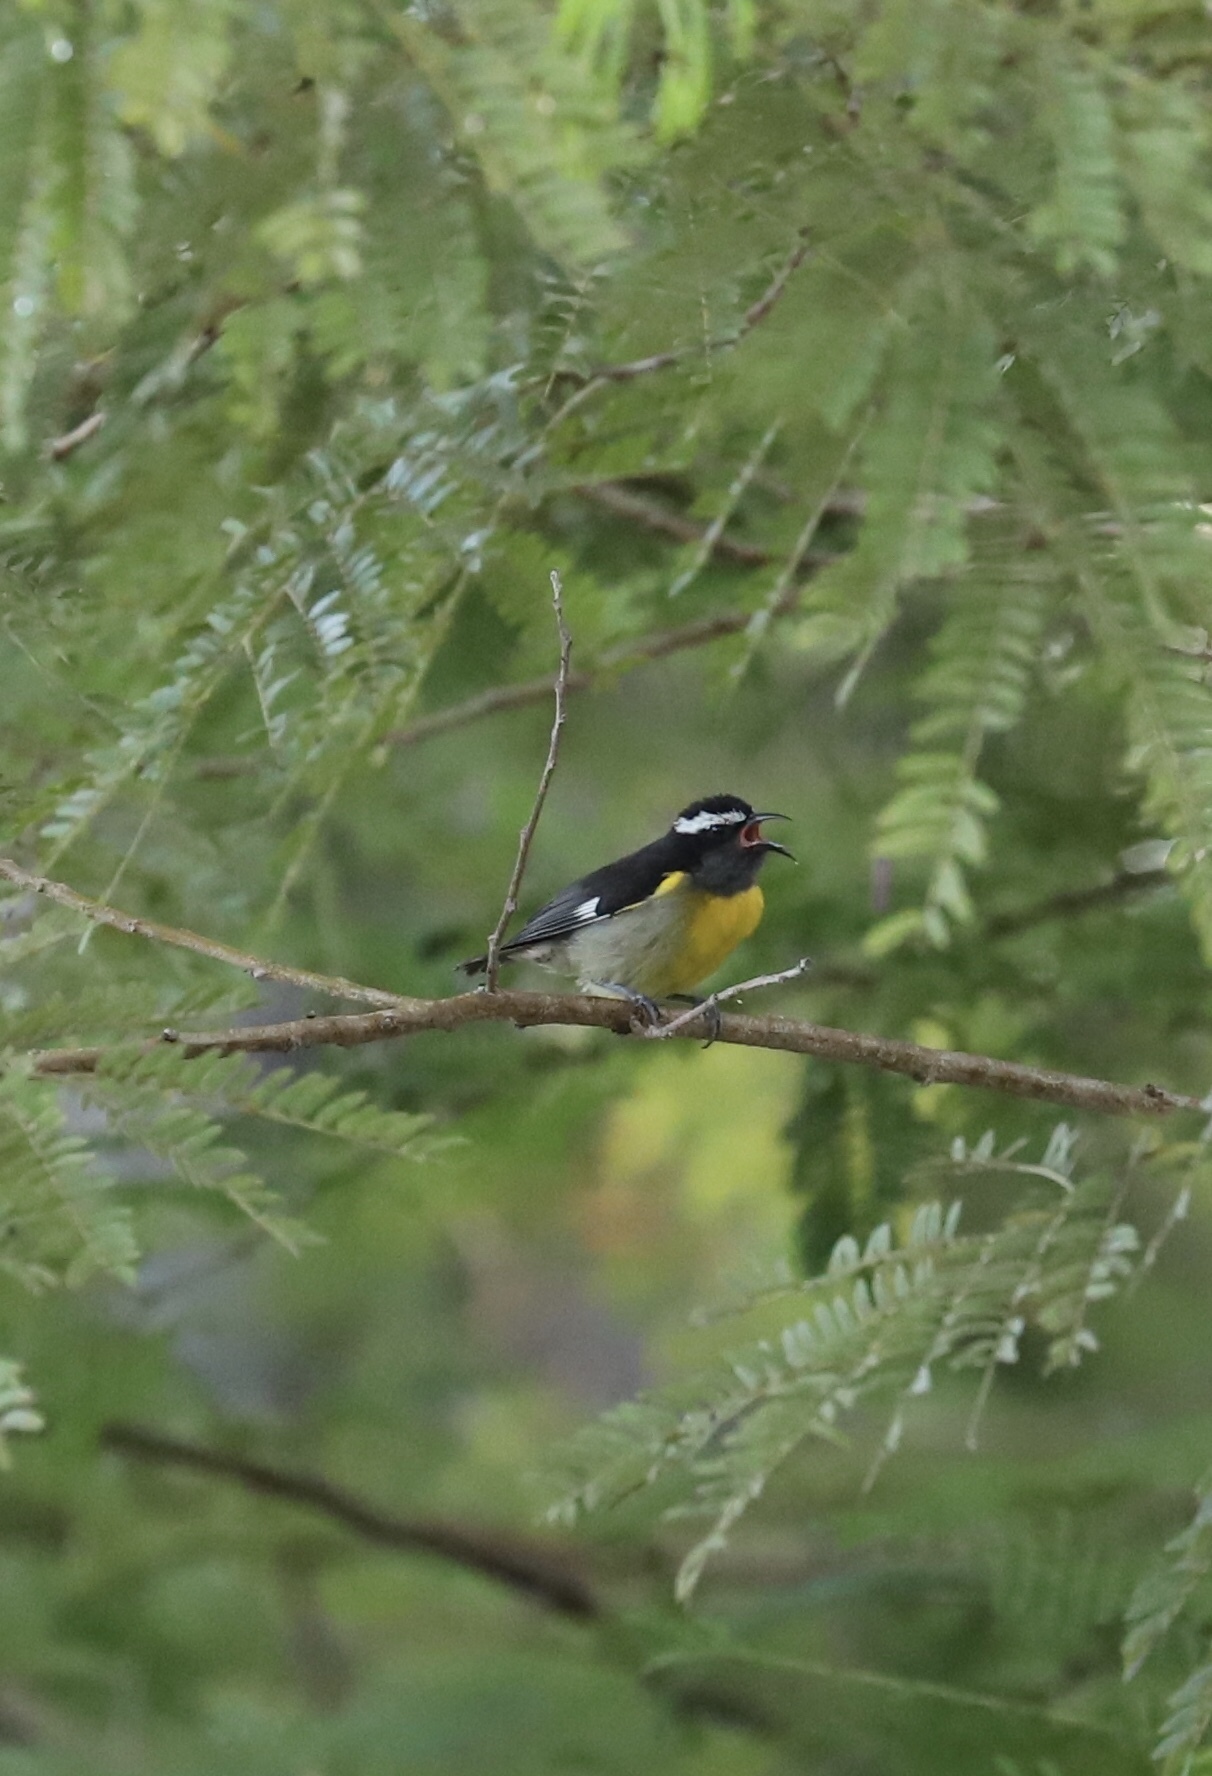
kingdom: Animalia
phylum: Chordata
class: Aves
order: Passeriformes
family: Thraupidae
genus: Coereba
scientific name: Coereba flaveola
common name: Bananaquit
